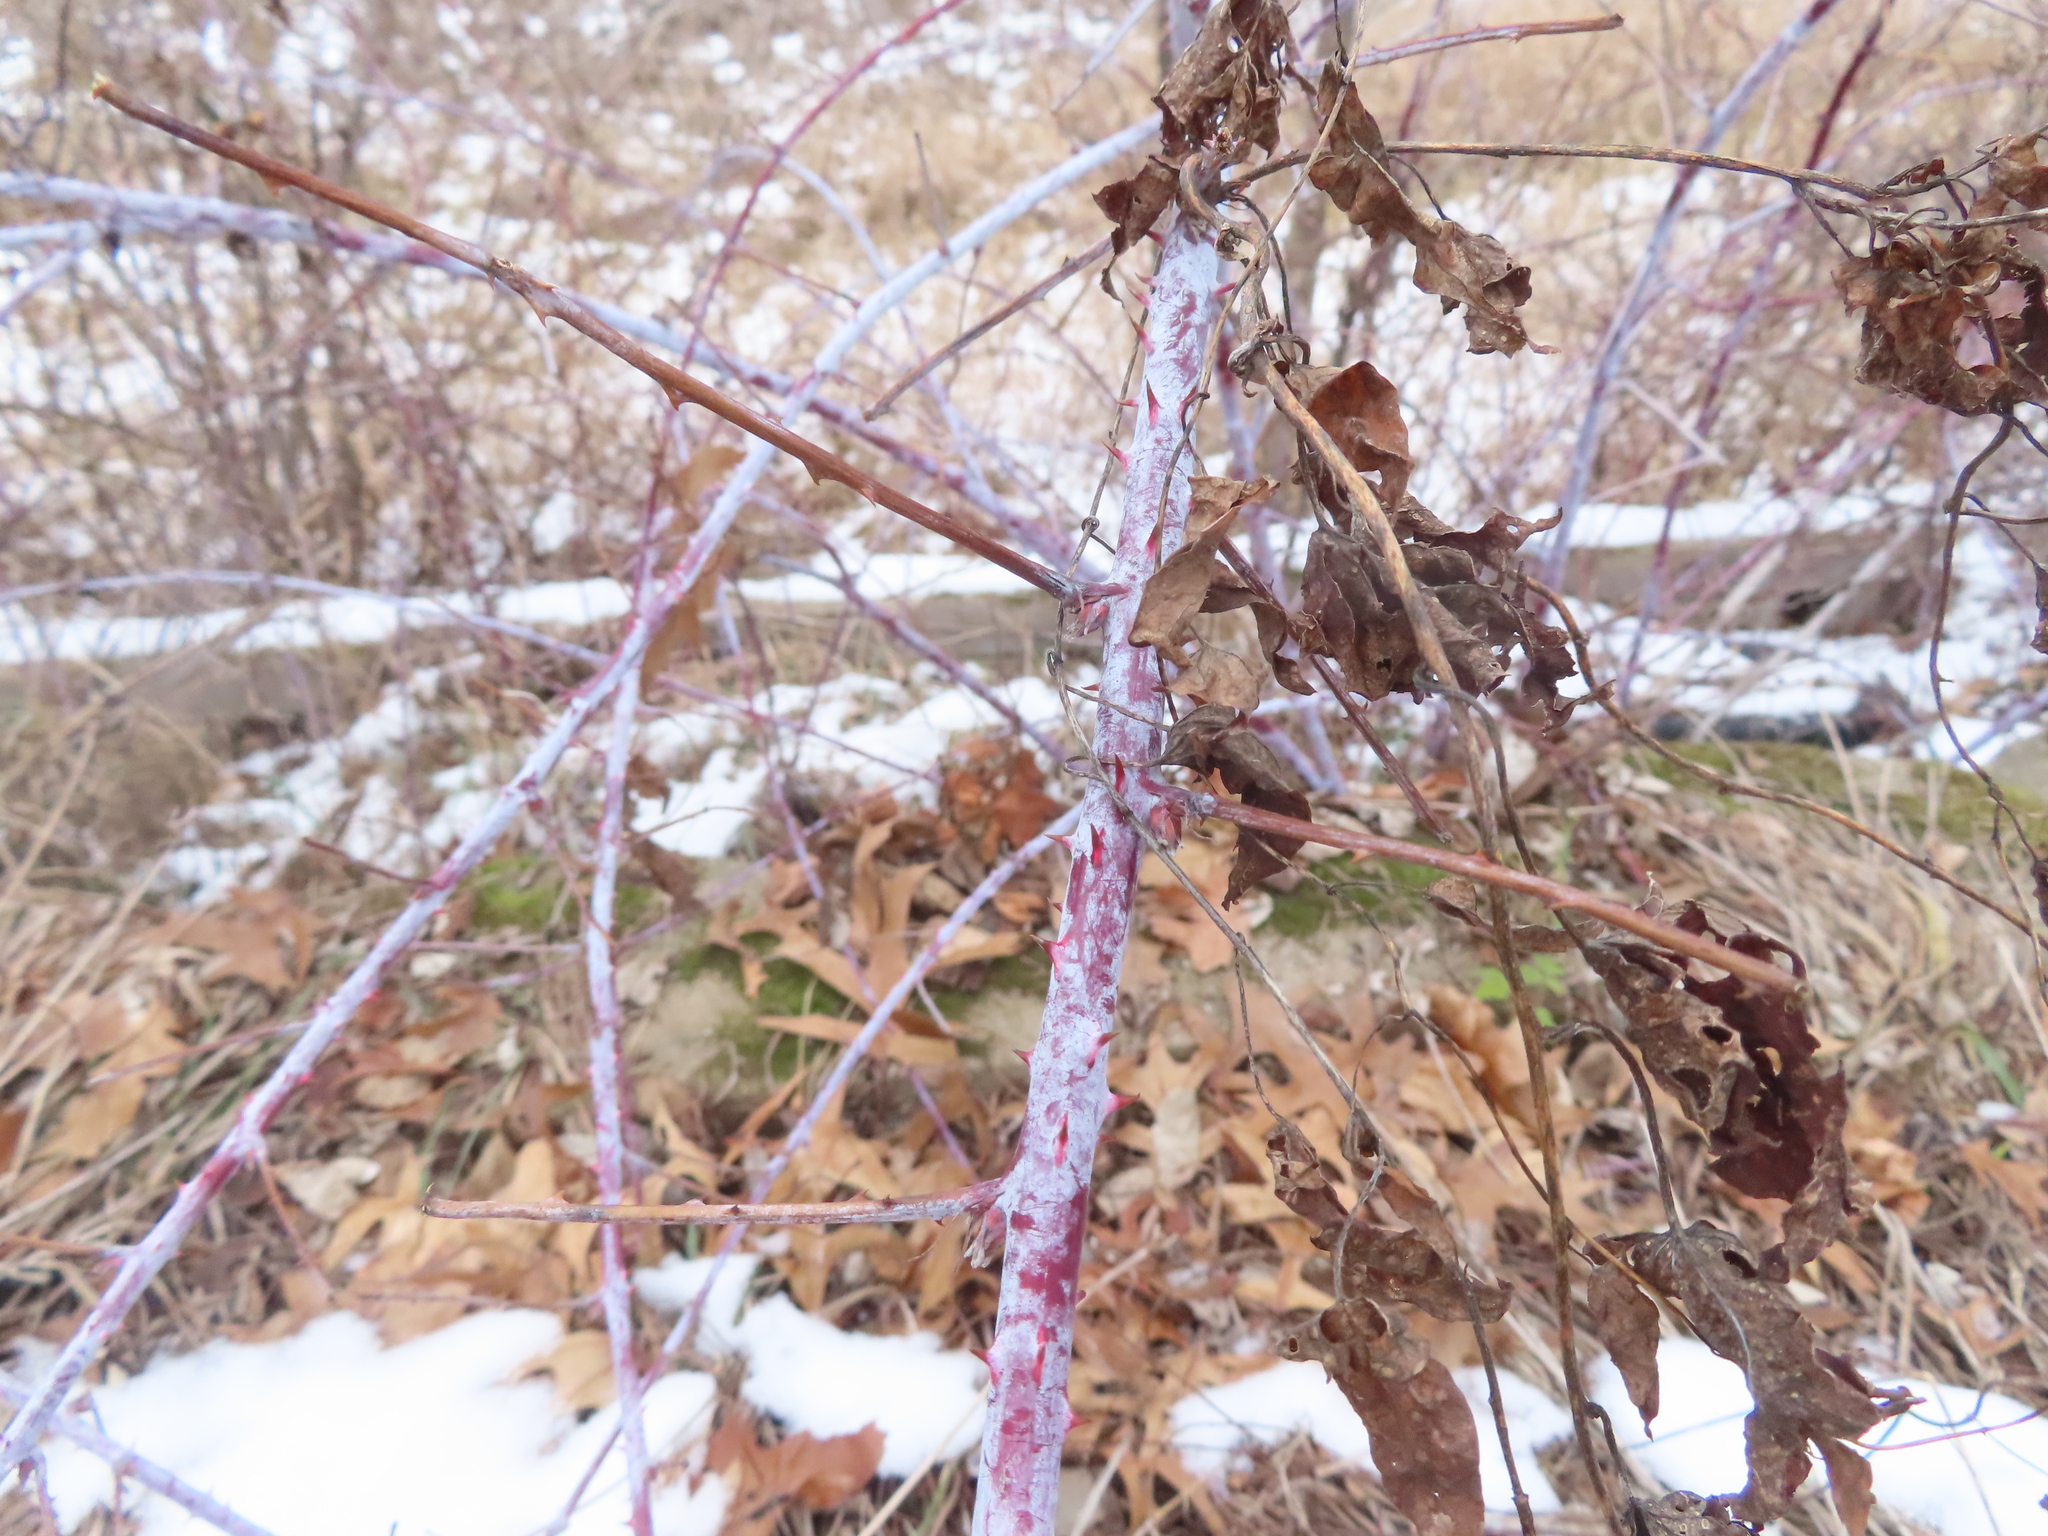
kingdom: Plantae
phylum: Tracheophyta
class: Magnoliopsida
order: Rosales
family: Rosaceae
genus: Rubus
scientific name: Rubus occidentalis
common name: Black raspberry
